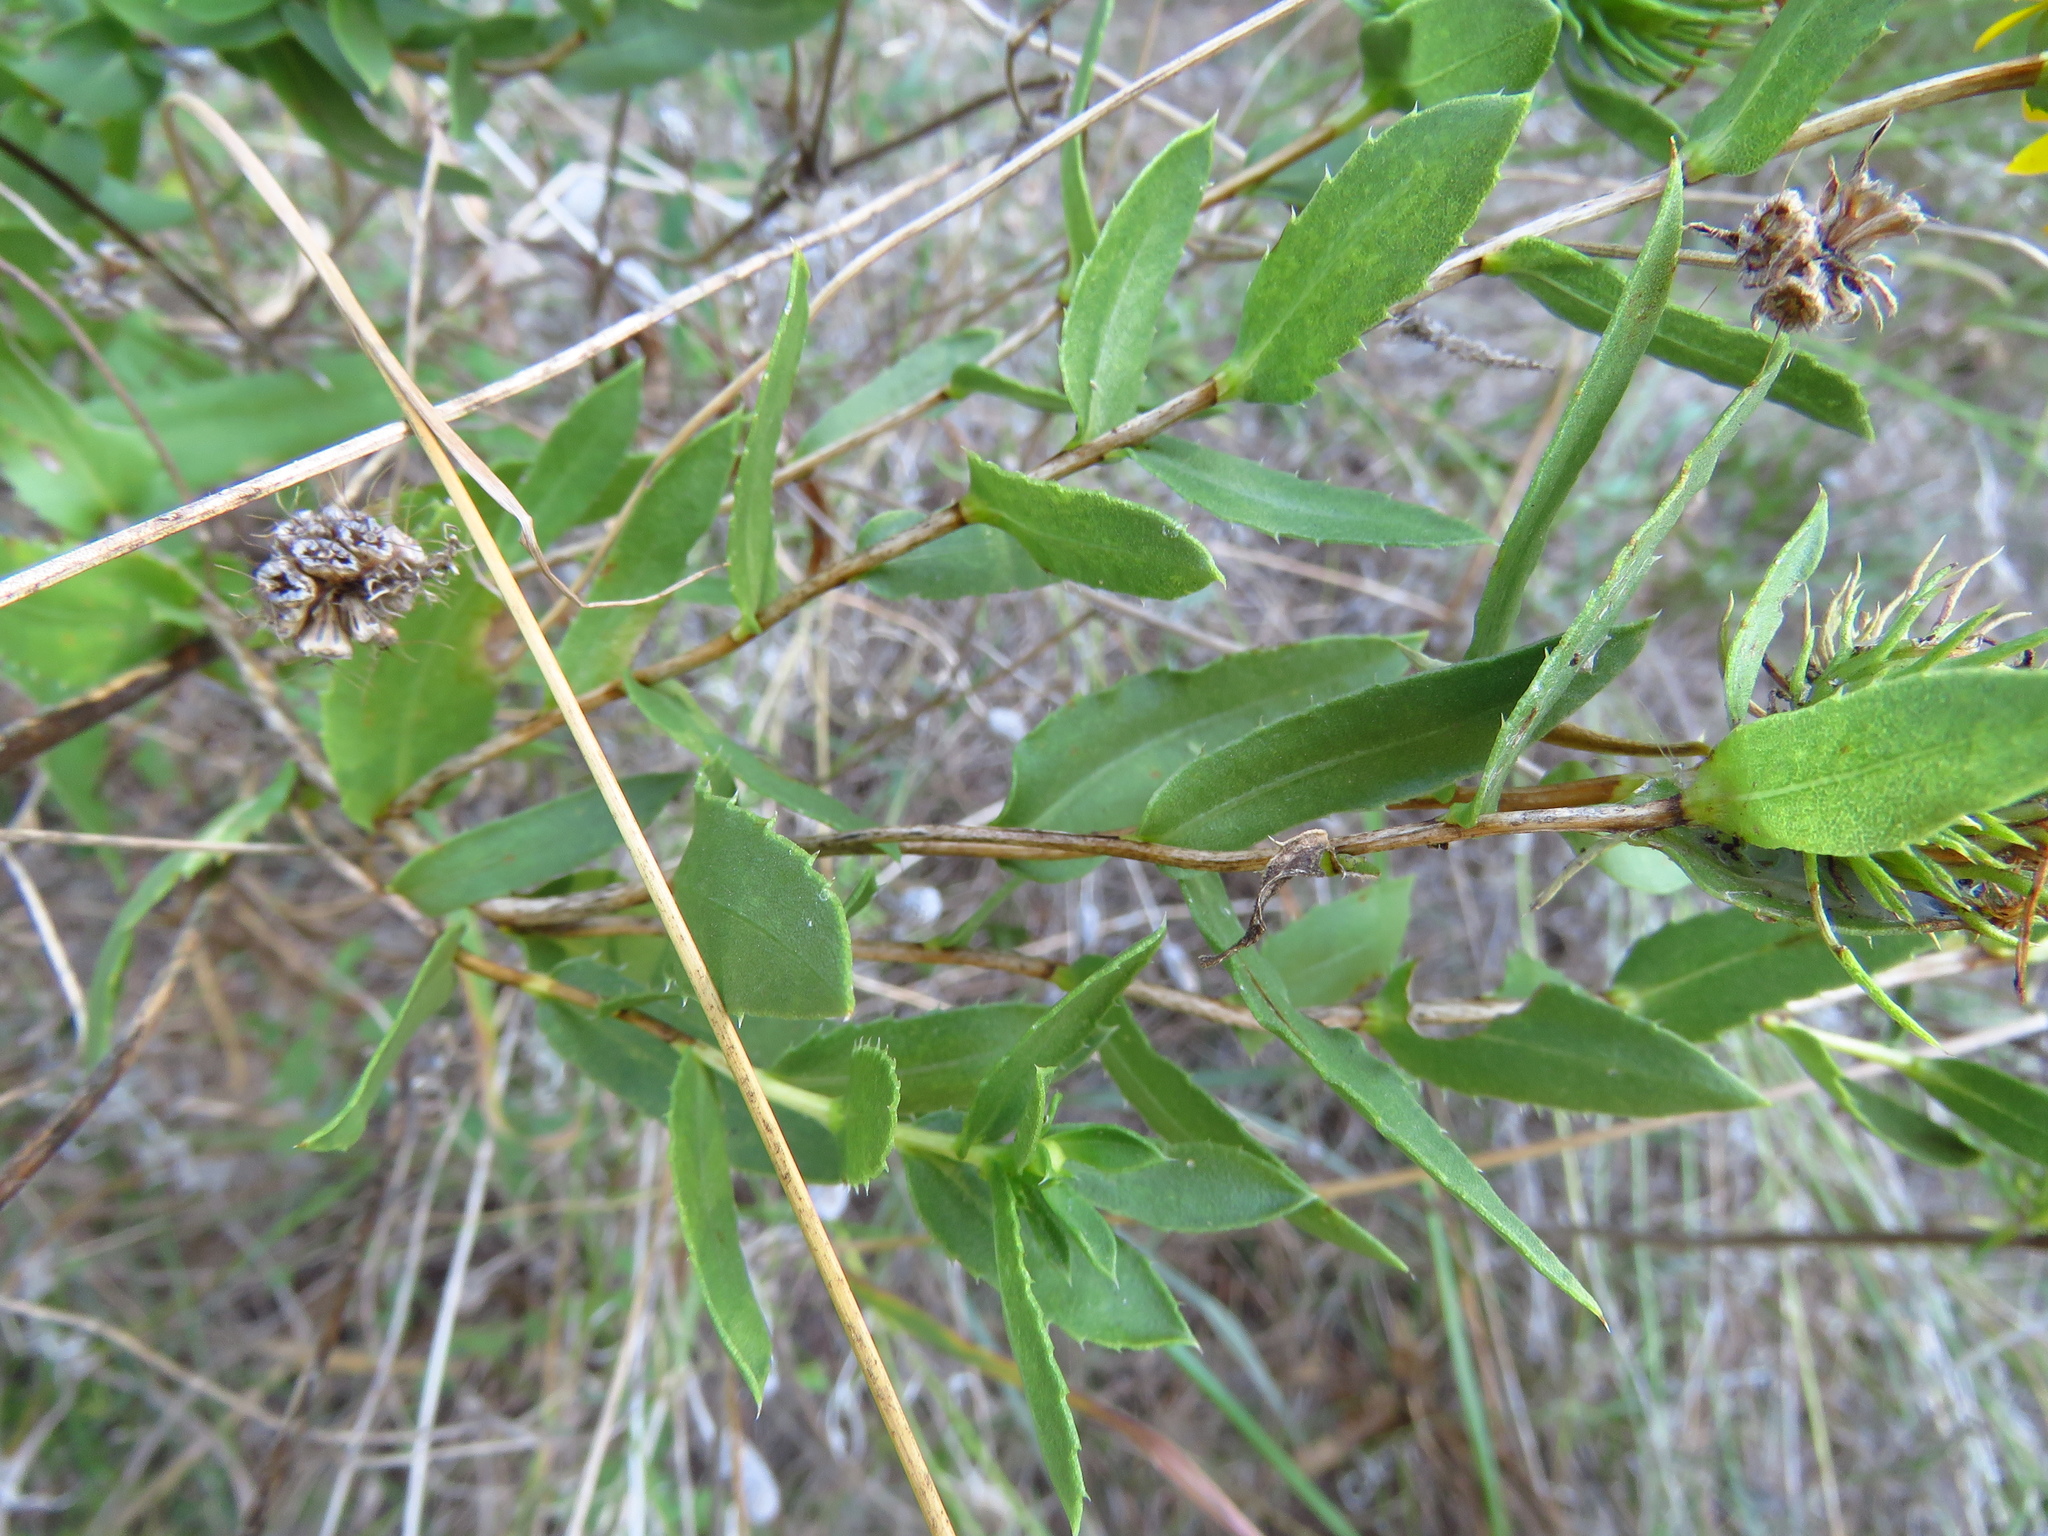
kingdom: Plantae
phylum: Tracheophyta
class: Magnoliopsida
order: Asterales
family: Asteraceae
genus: Grindelia
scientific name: Grindelia lanceolata
